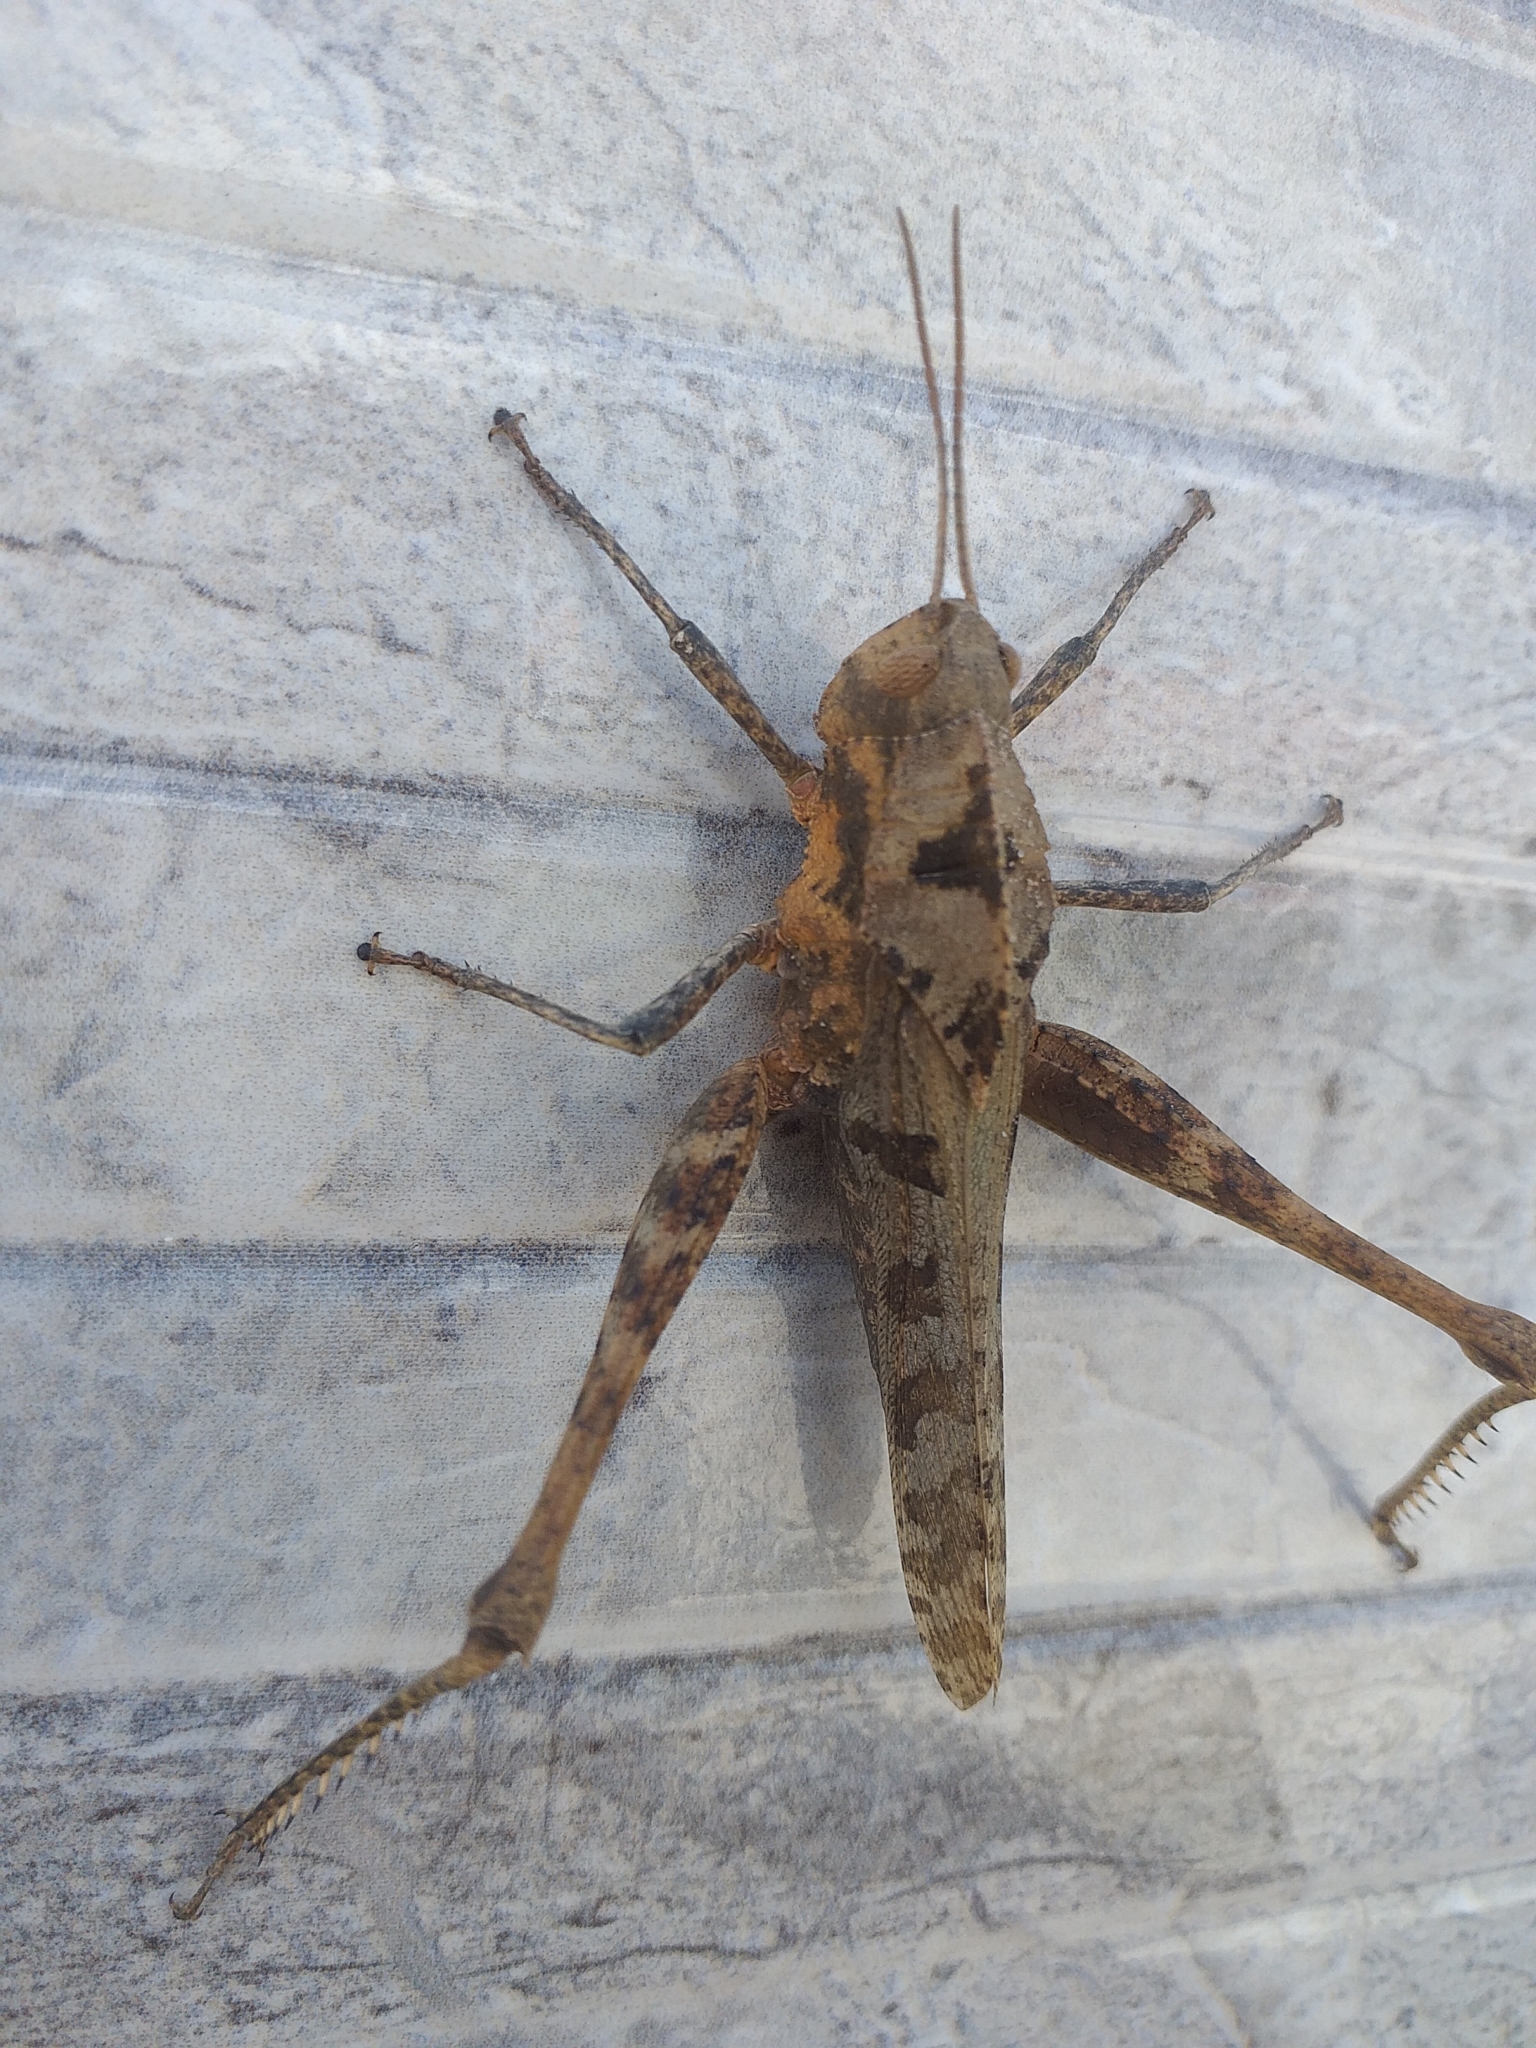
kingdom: Animalia
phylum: Arthropoda
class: Insecta
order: Orthoptera
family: Romaleidae
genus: Xyleus
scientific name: Xyleus discoideus
